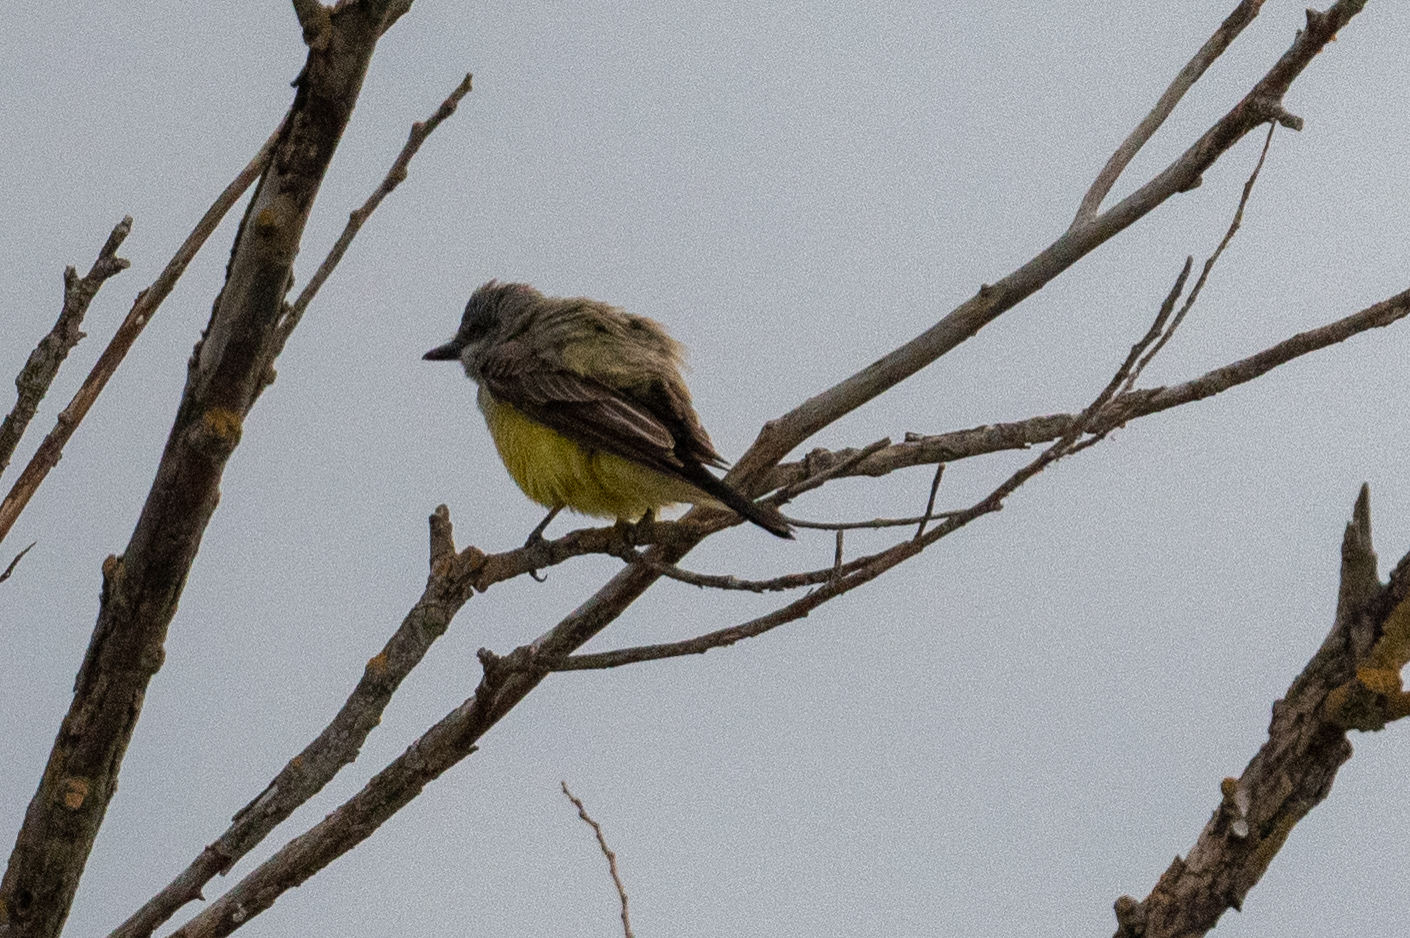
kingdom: Animalia
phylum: Chordata
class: Aves
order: Passeriformes
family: Tyrannidae
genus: Tyrannus
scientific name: Tyrannus verticalis
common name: Western kingbird
